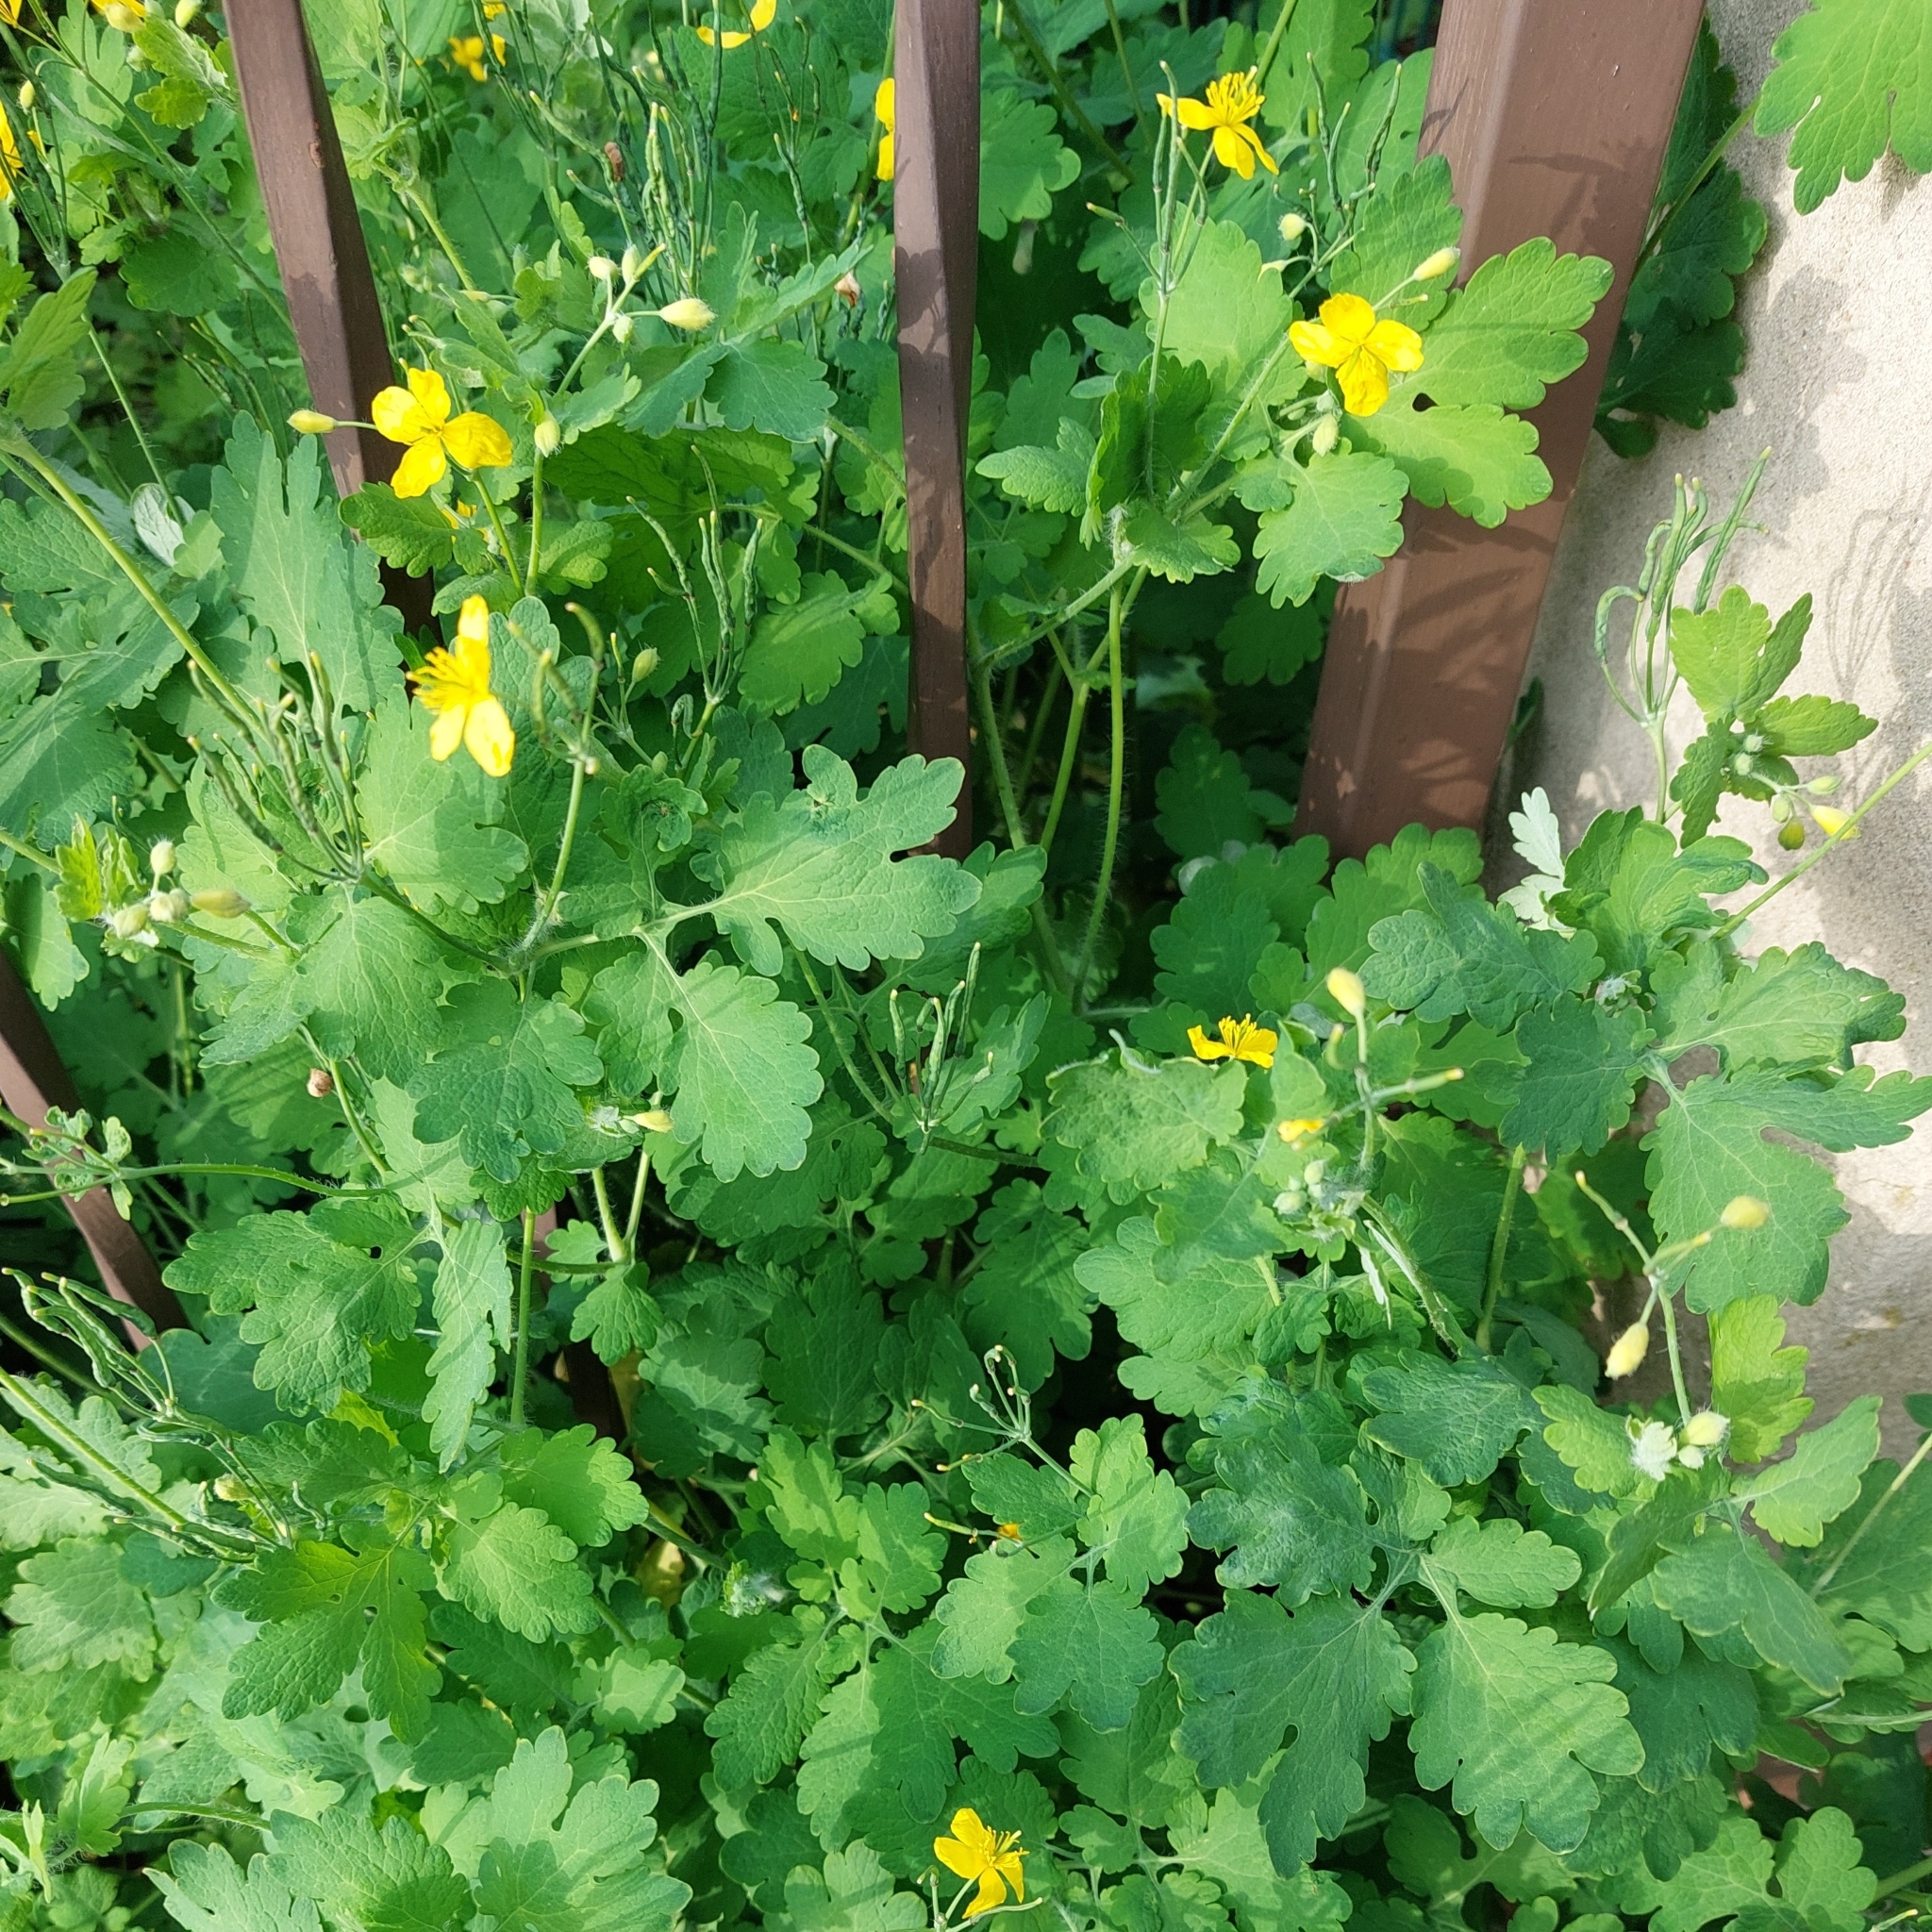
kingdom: Plantae
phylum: Tracheophyta
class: Magnoliopsida
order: Ranunculales
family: Papaveraceae
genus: Chelidonium
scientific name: Chelidonium majus
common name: Greater celandine
